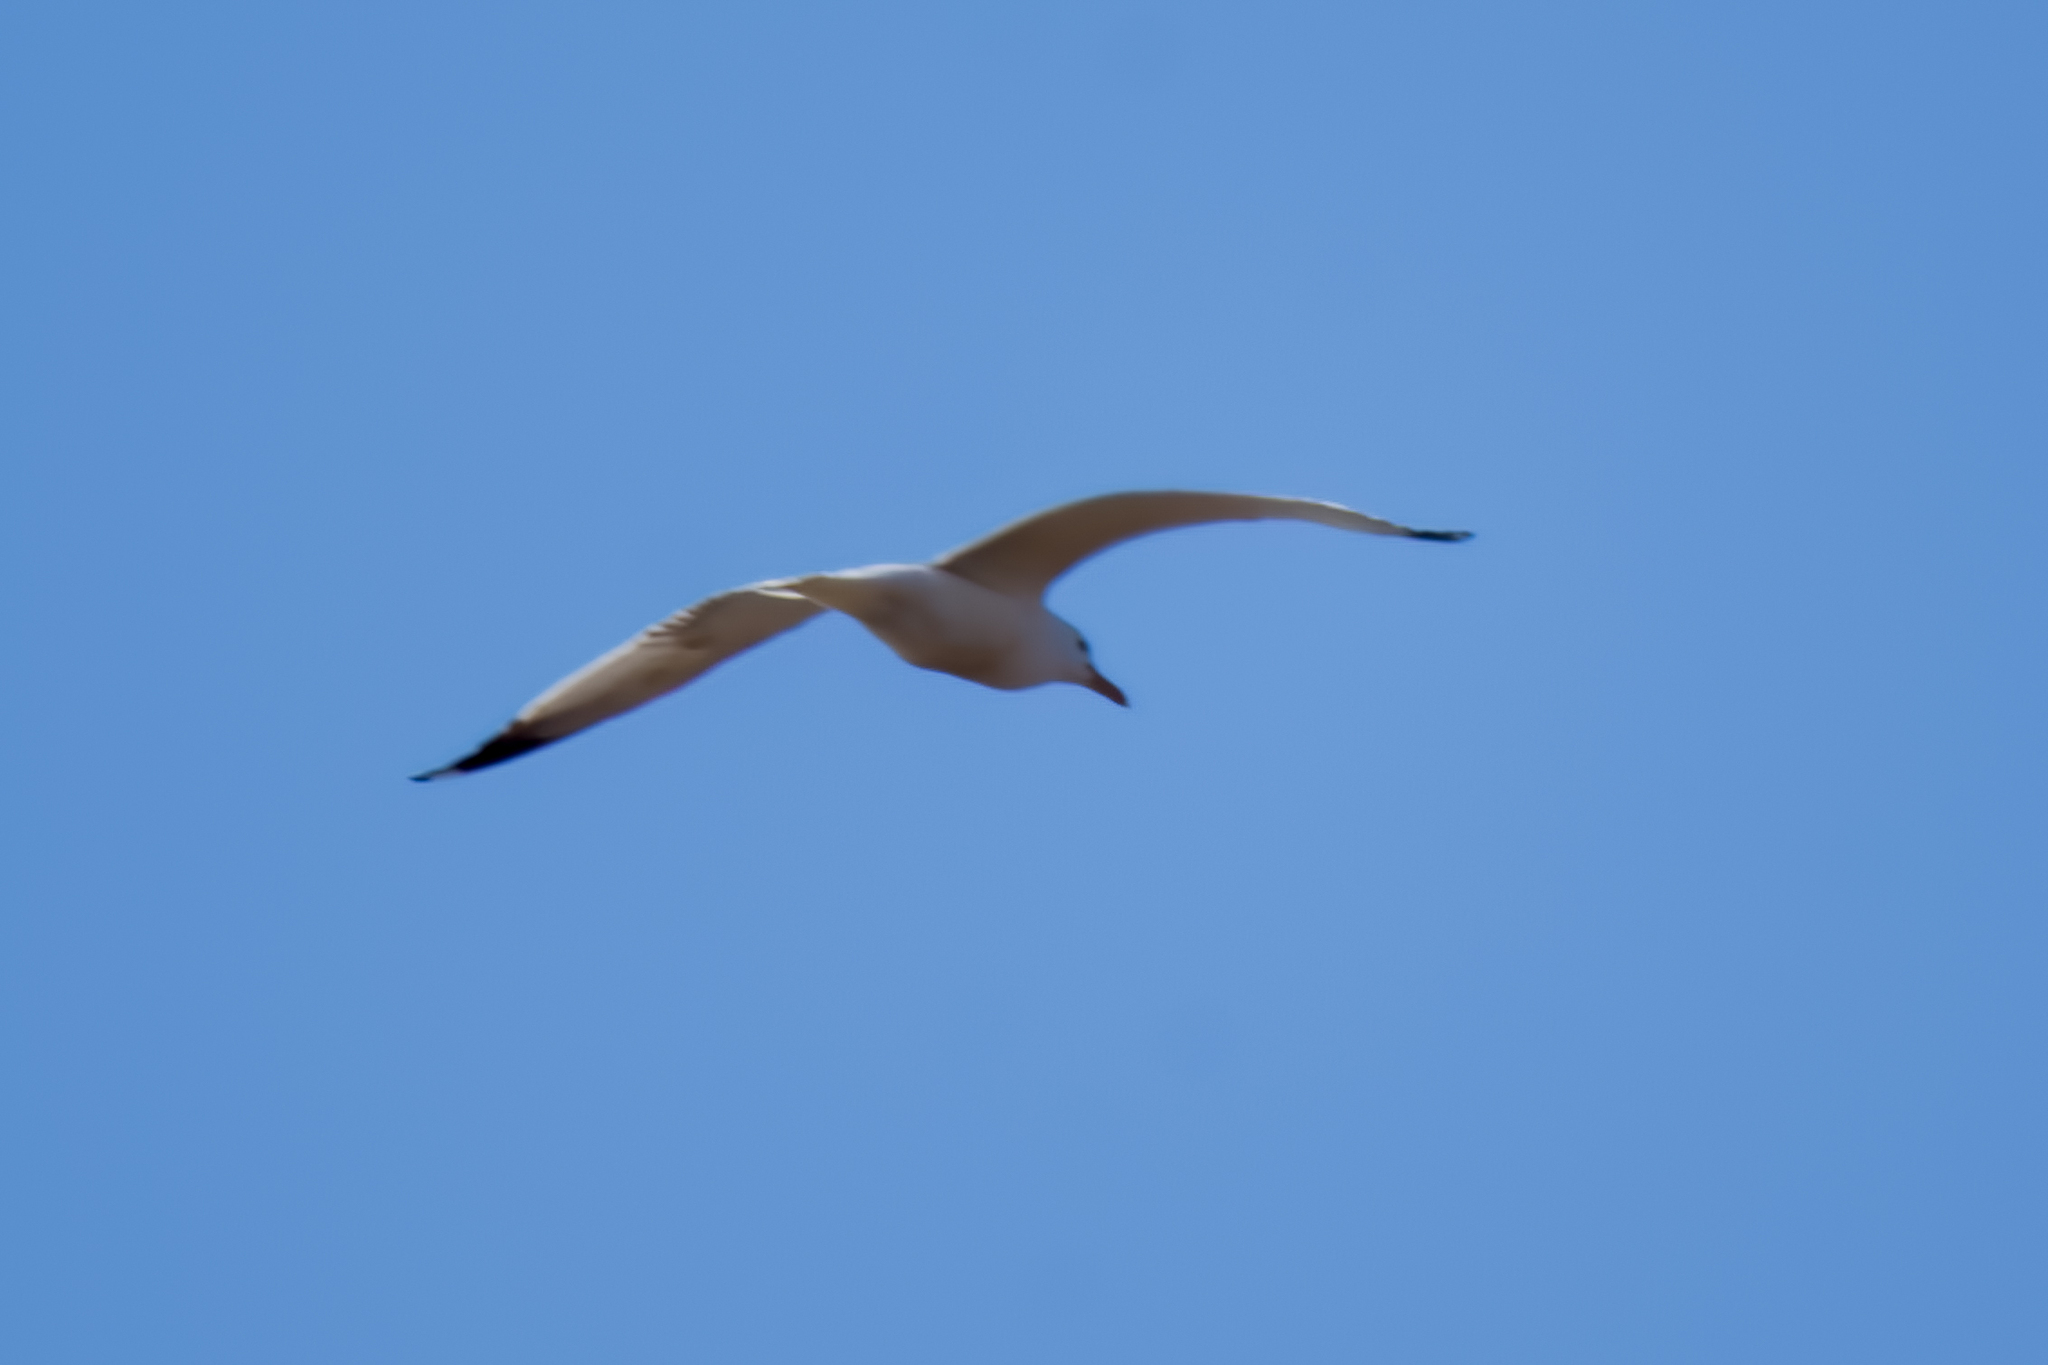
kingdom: Animalia
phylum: Chordata
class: Aves
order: Charadriiformes
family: Laridae
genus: Larus
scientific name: Larus canus
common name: Mew gull
